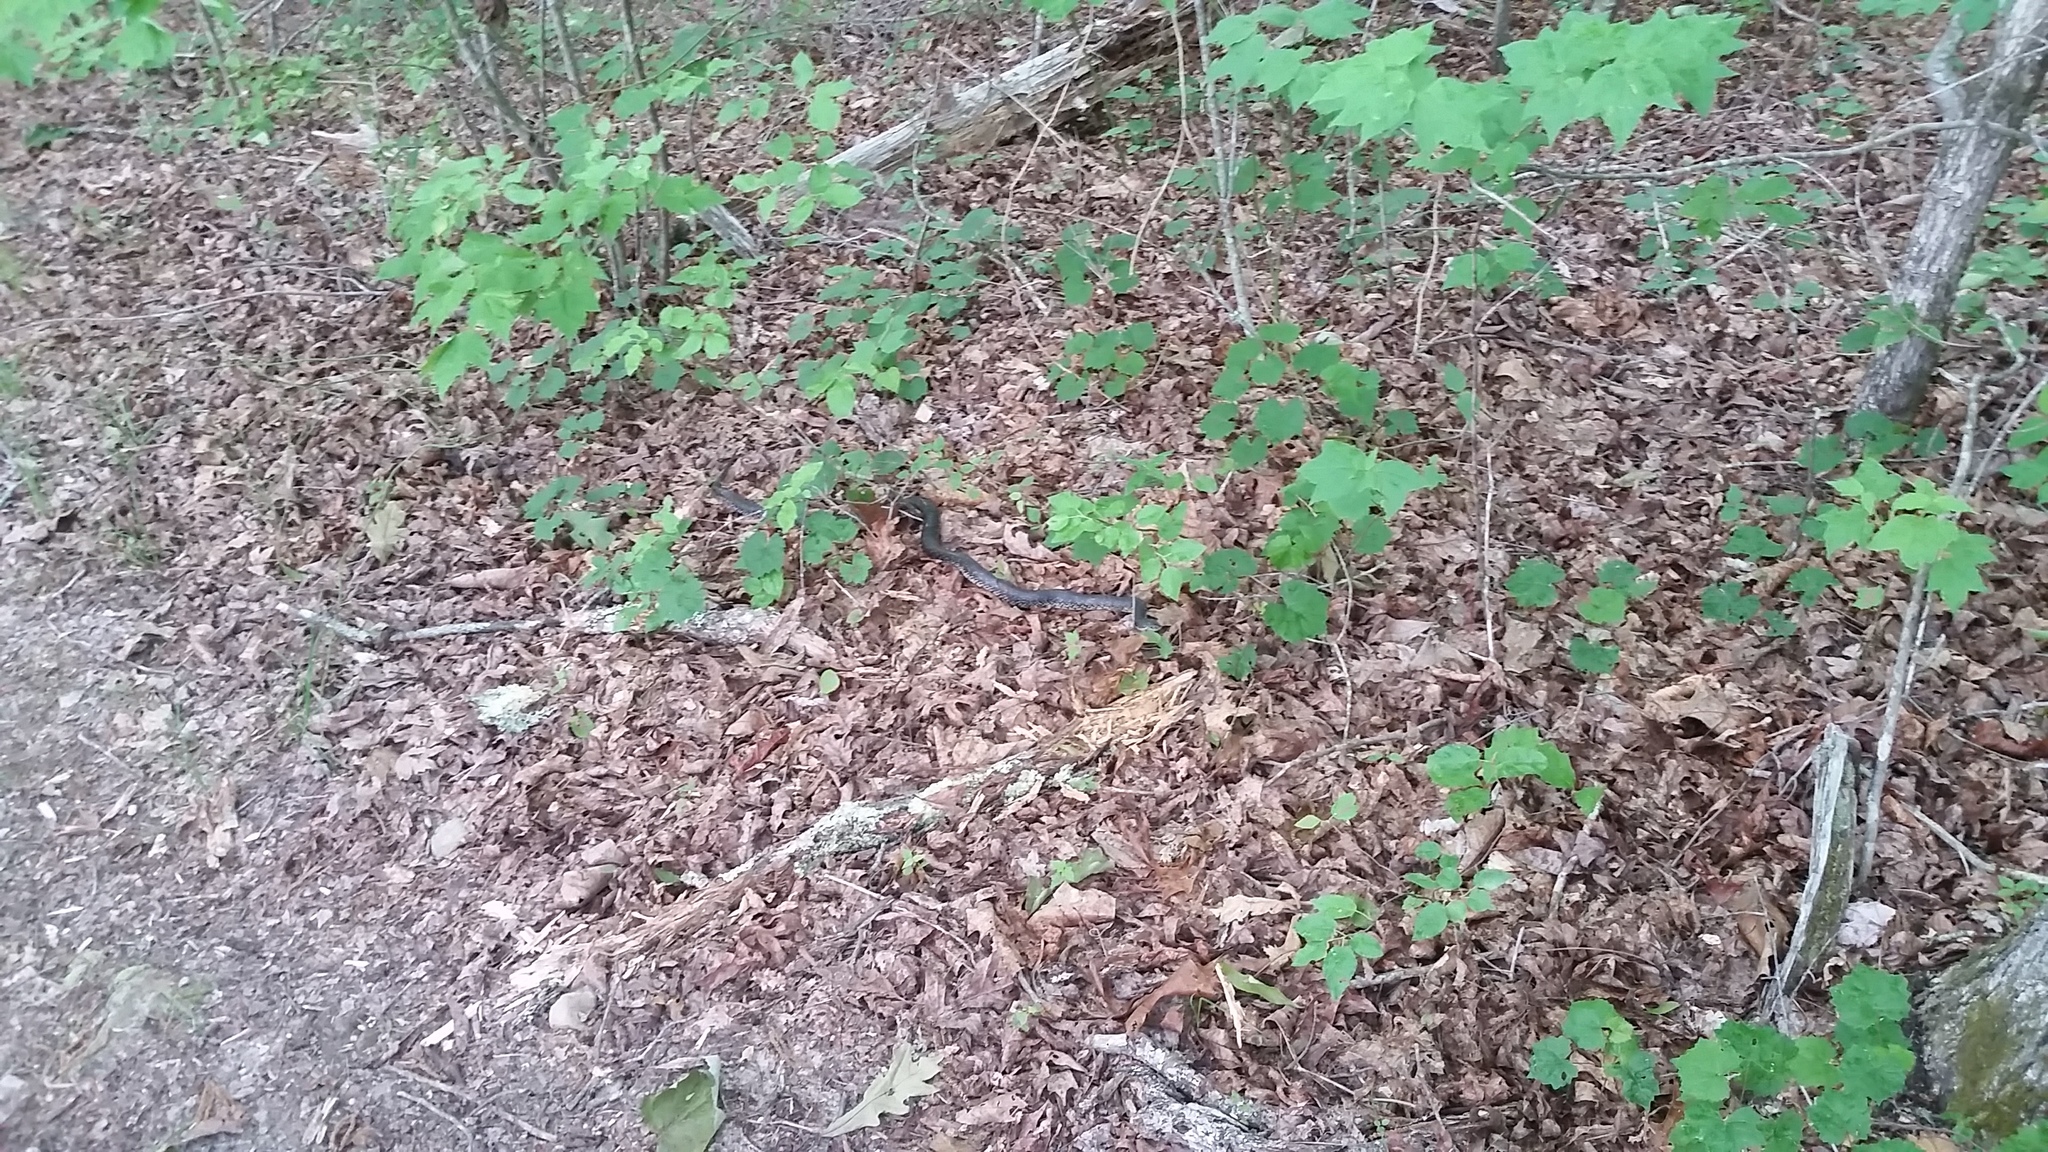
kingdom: Animalia
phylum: Chordata
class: Squamata
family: Colubridae
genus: Lampropeltis
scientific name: Lampropeltis nigra
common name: Black kingsnake
